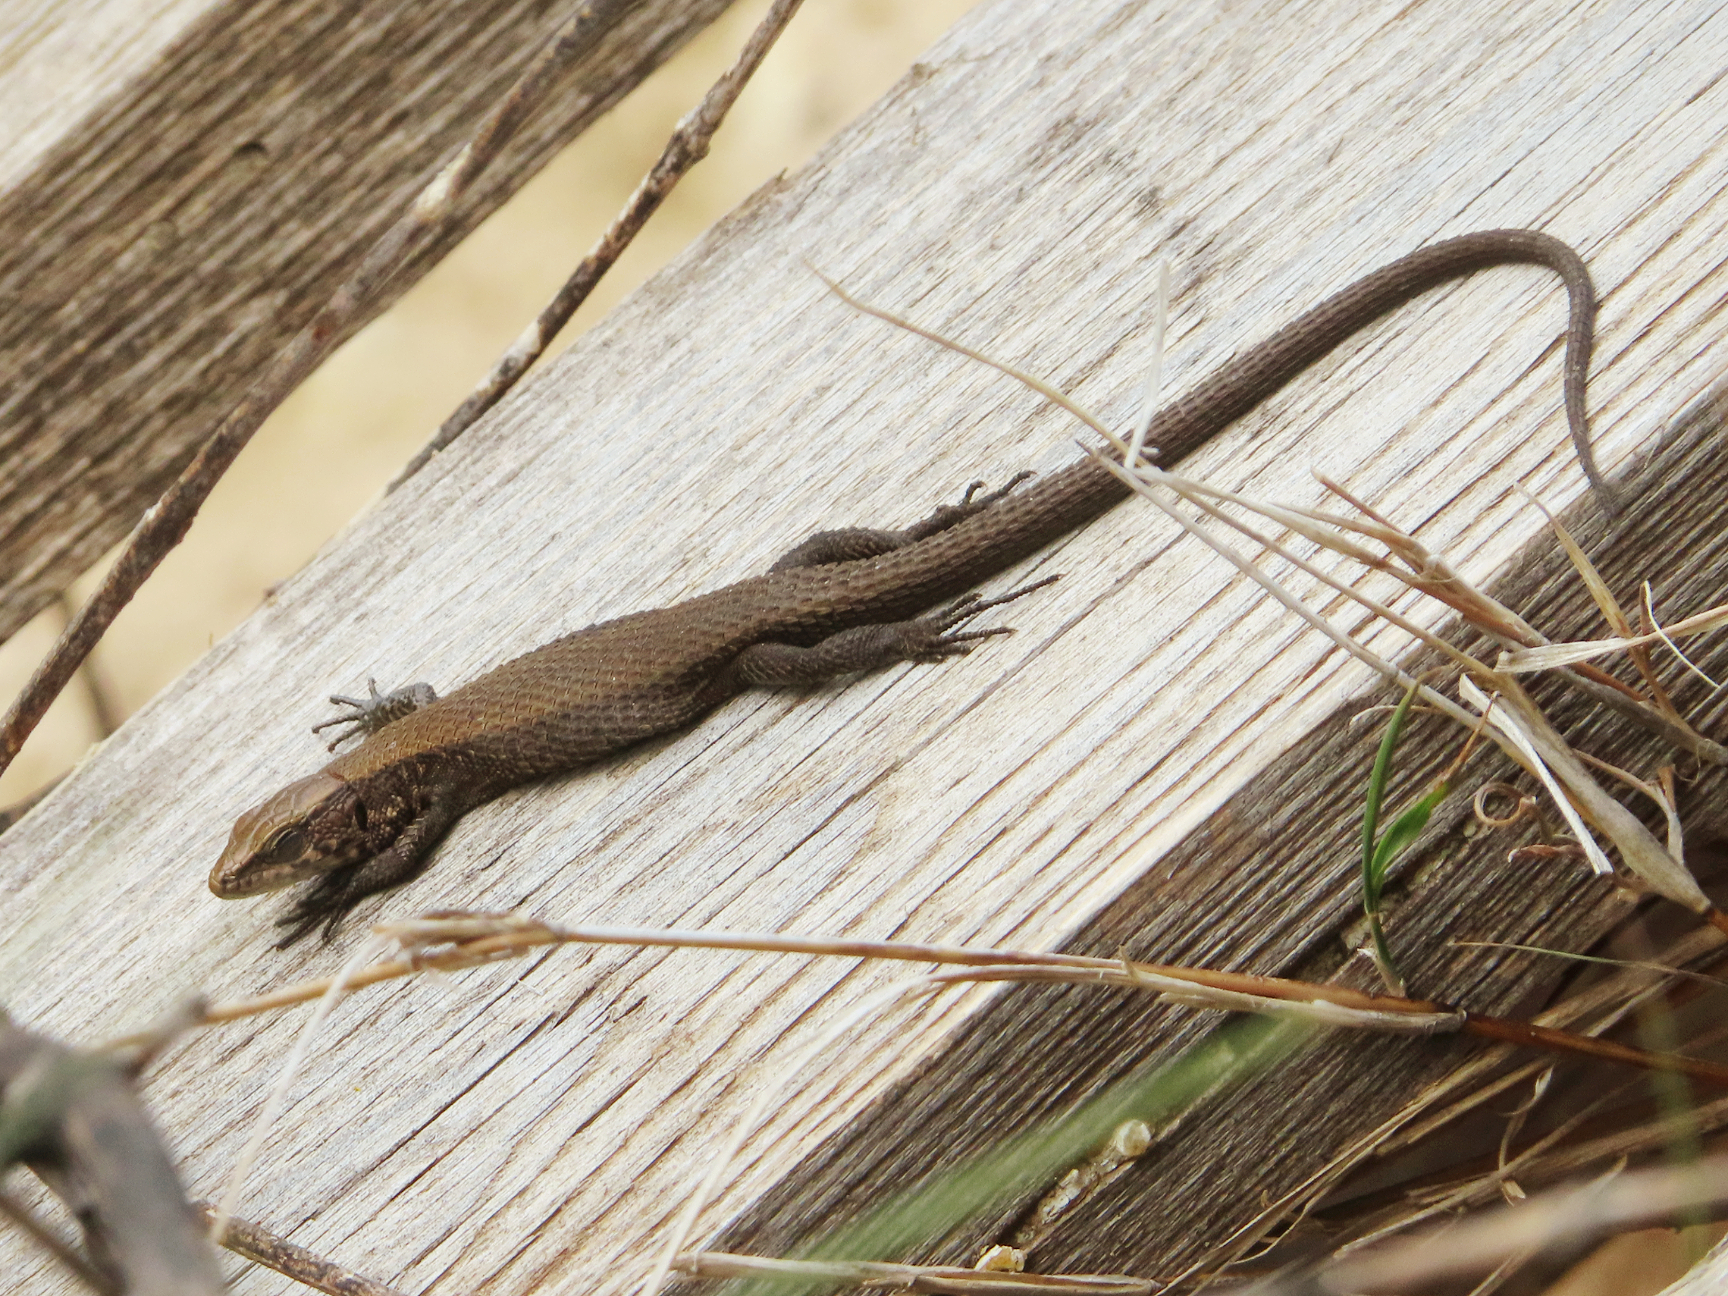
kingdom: Animalia
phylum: Chordata
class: Squamata
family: Lacertidae
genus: Algyroides
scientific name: Algyroides moreoticus
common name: Greek algyroides
